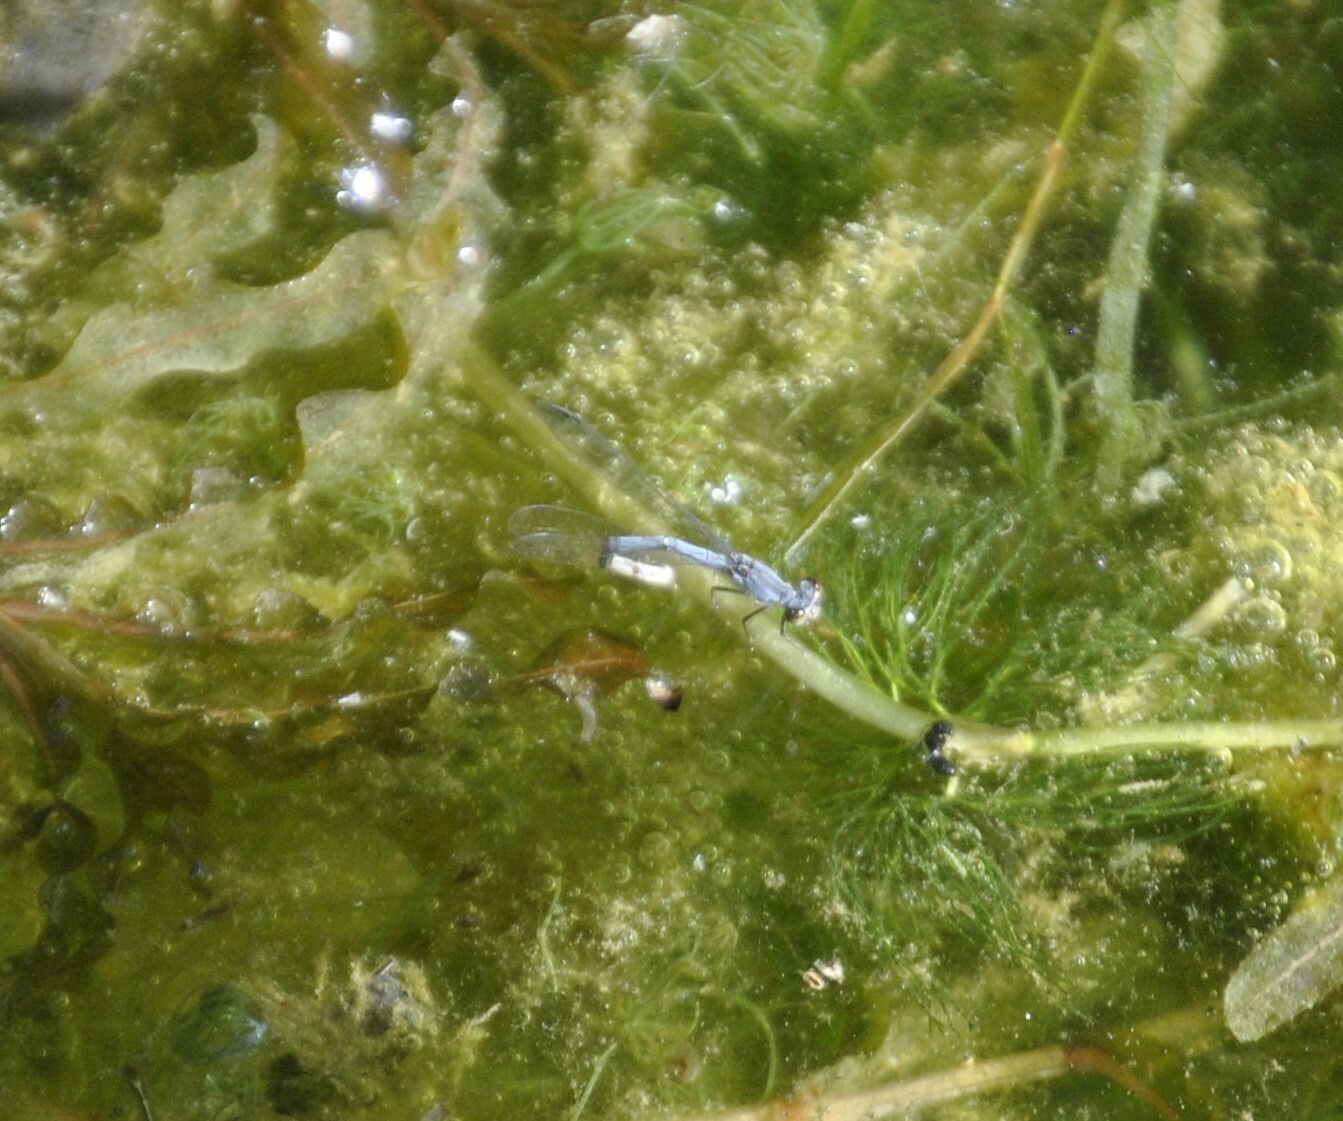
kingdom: Animalia
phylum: Arthropoda
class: Insecta
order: Odonata
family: Coenagrionidae
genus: Ischnura
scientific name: Ischnura verticalis
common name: Eastern forktail
